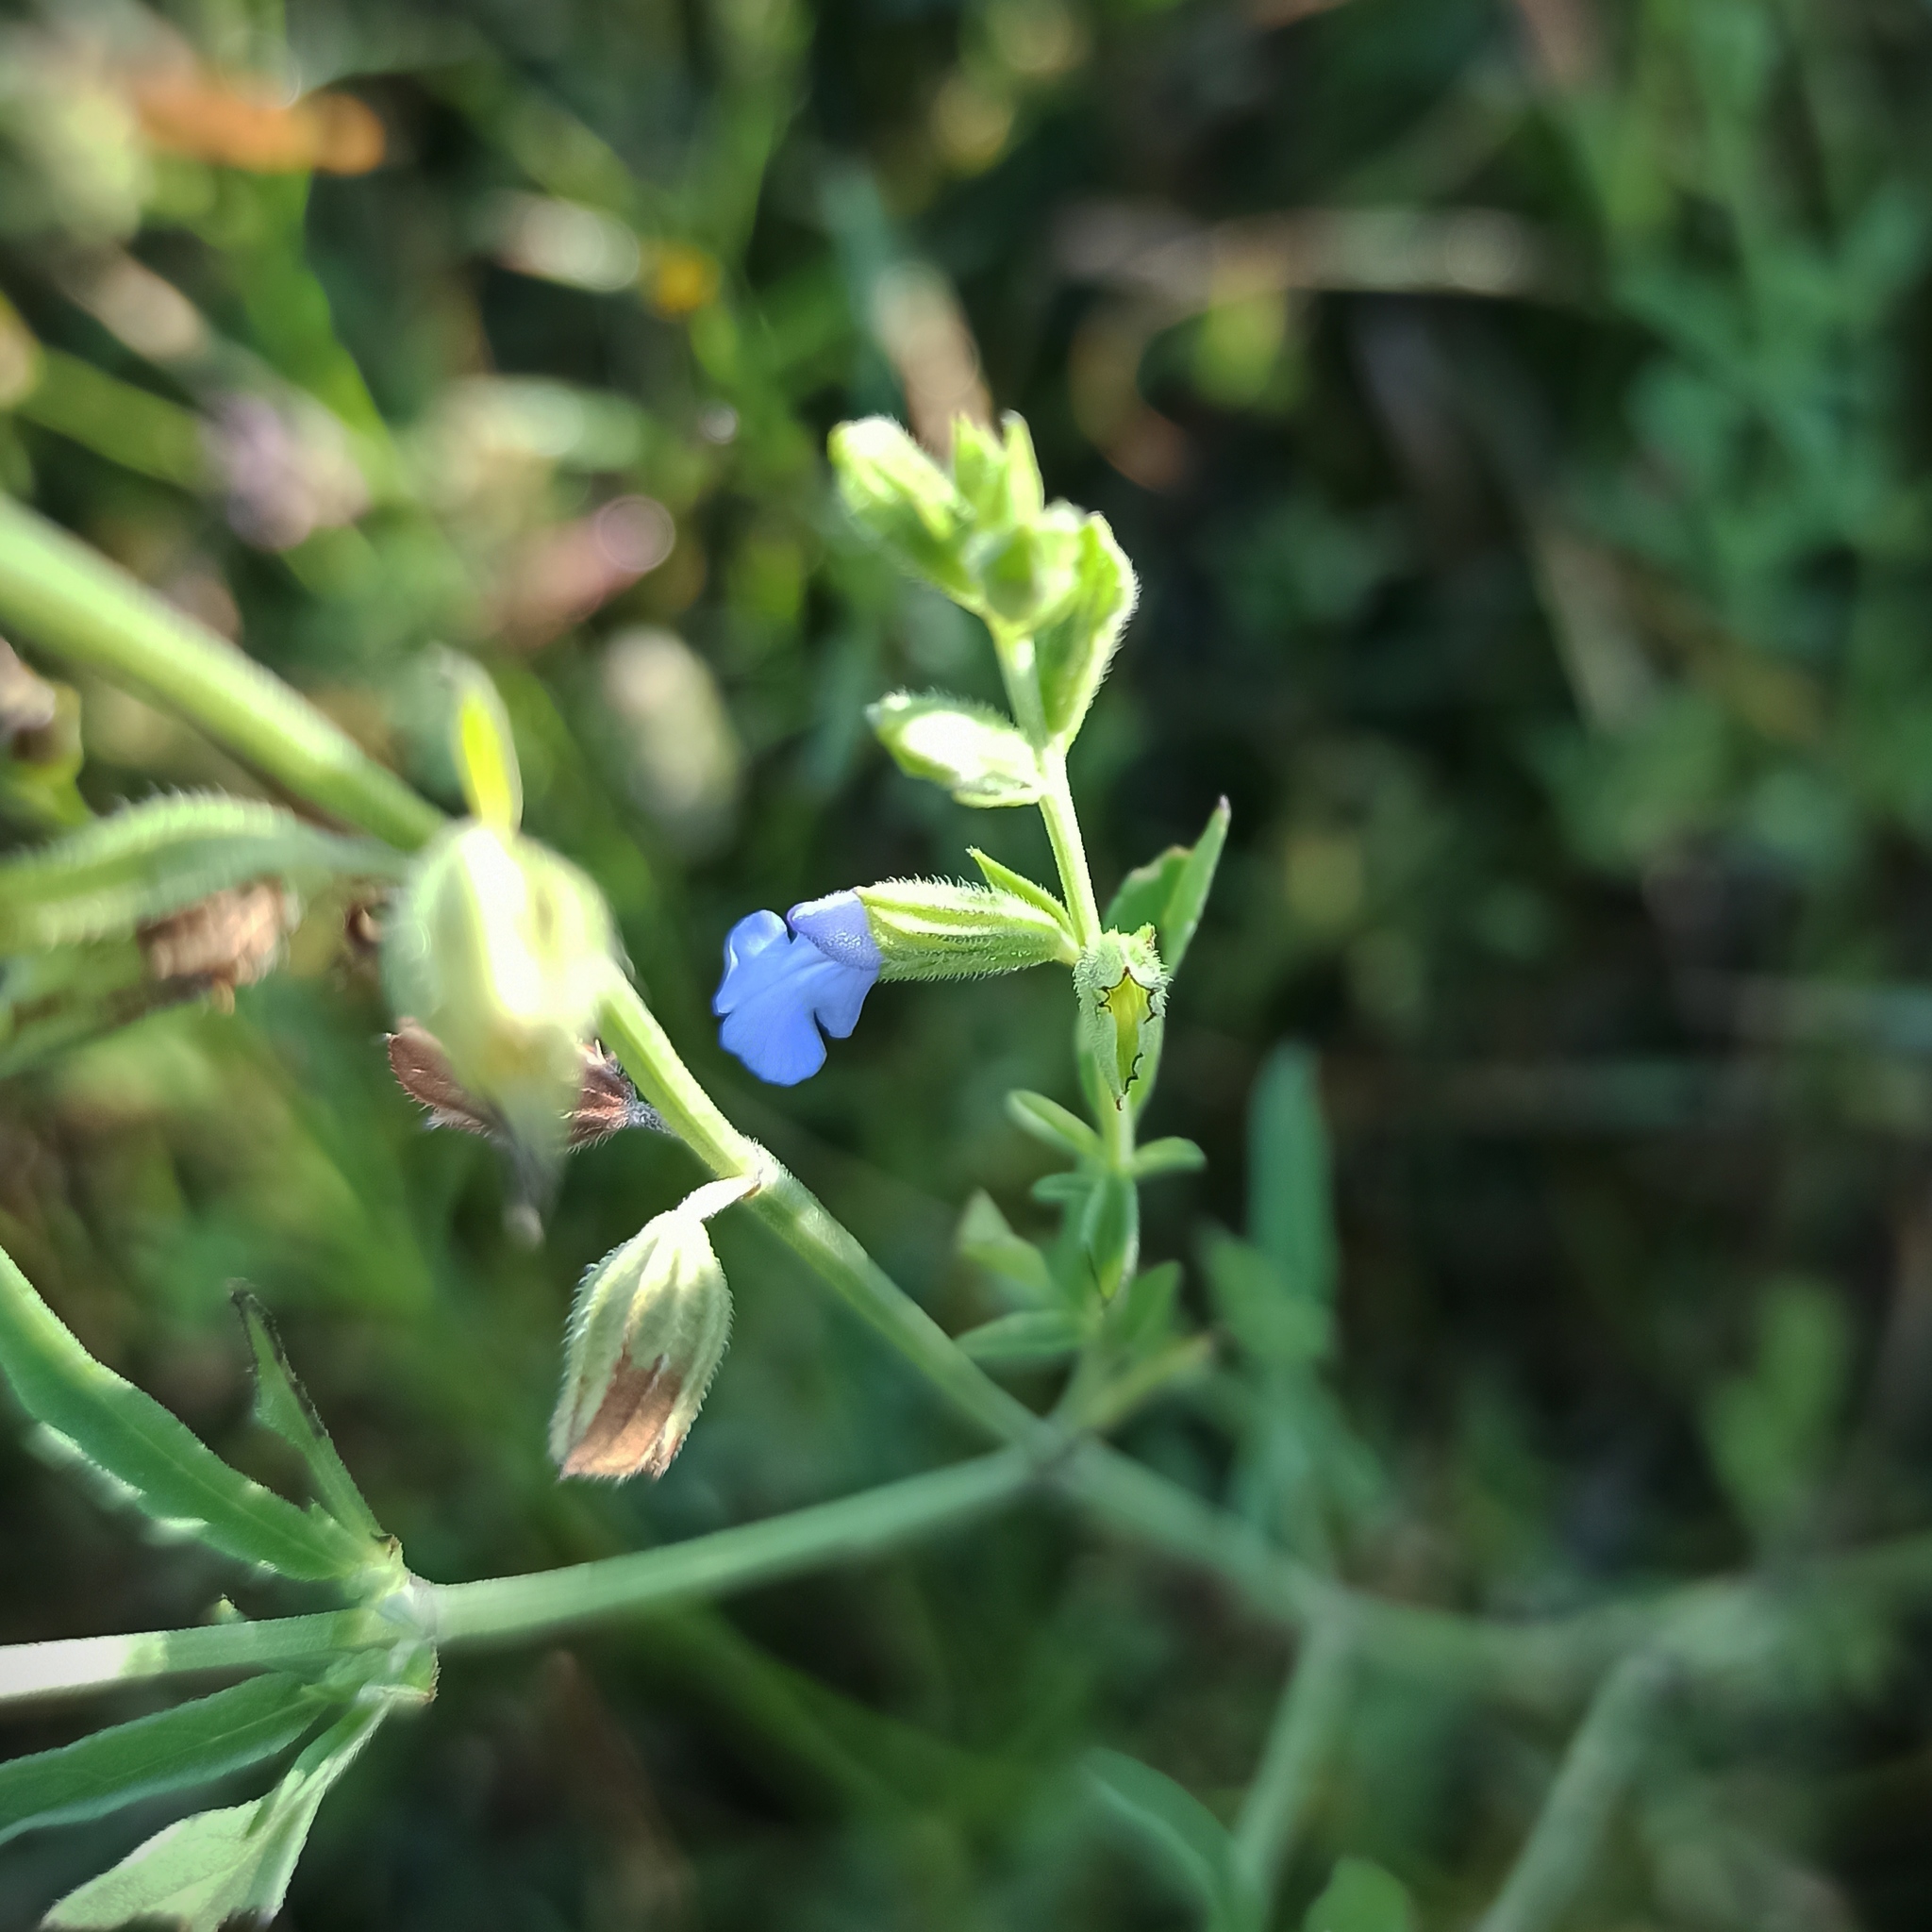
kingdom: Plantae
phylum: Tracheophyta
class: Magnoliopsida
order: Lamiales
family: Lamiaceae
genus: Salvia
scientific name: Salvia reflexa
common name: Mintweed
